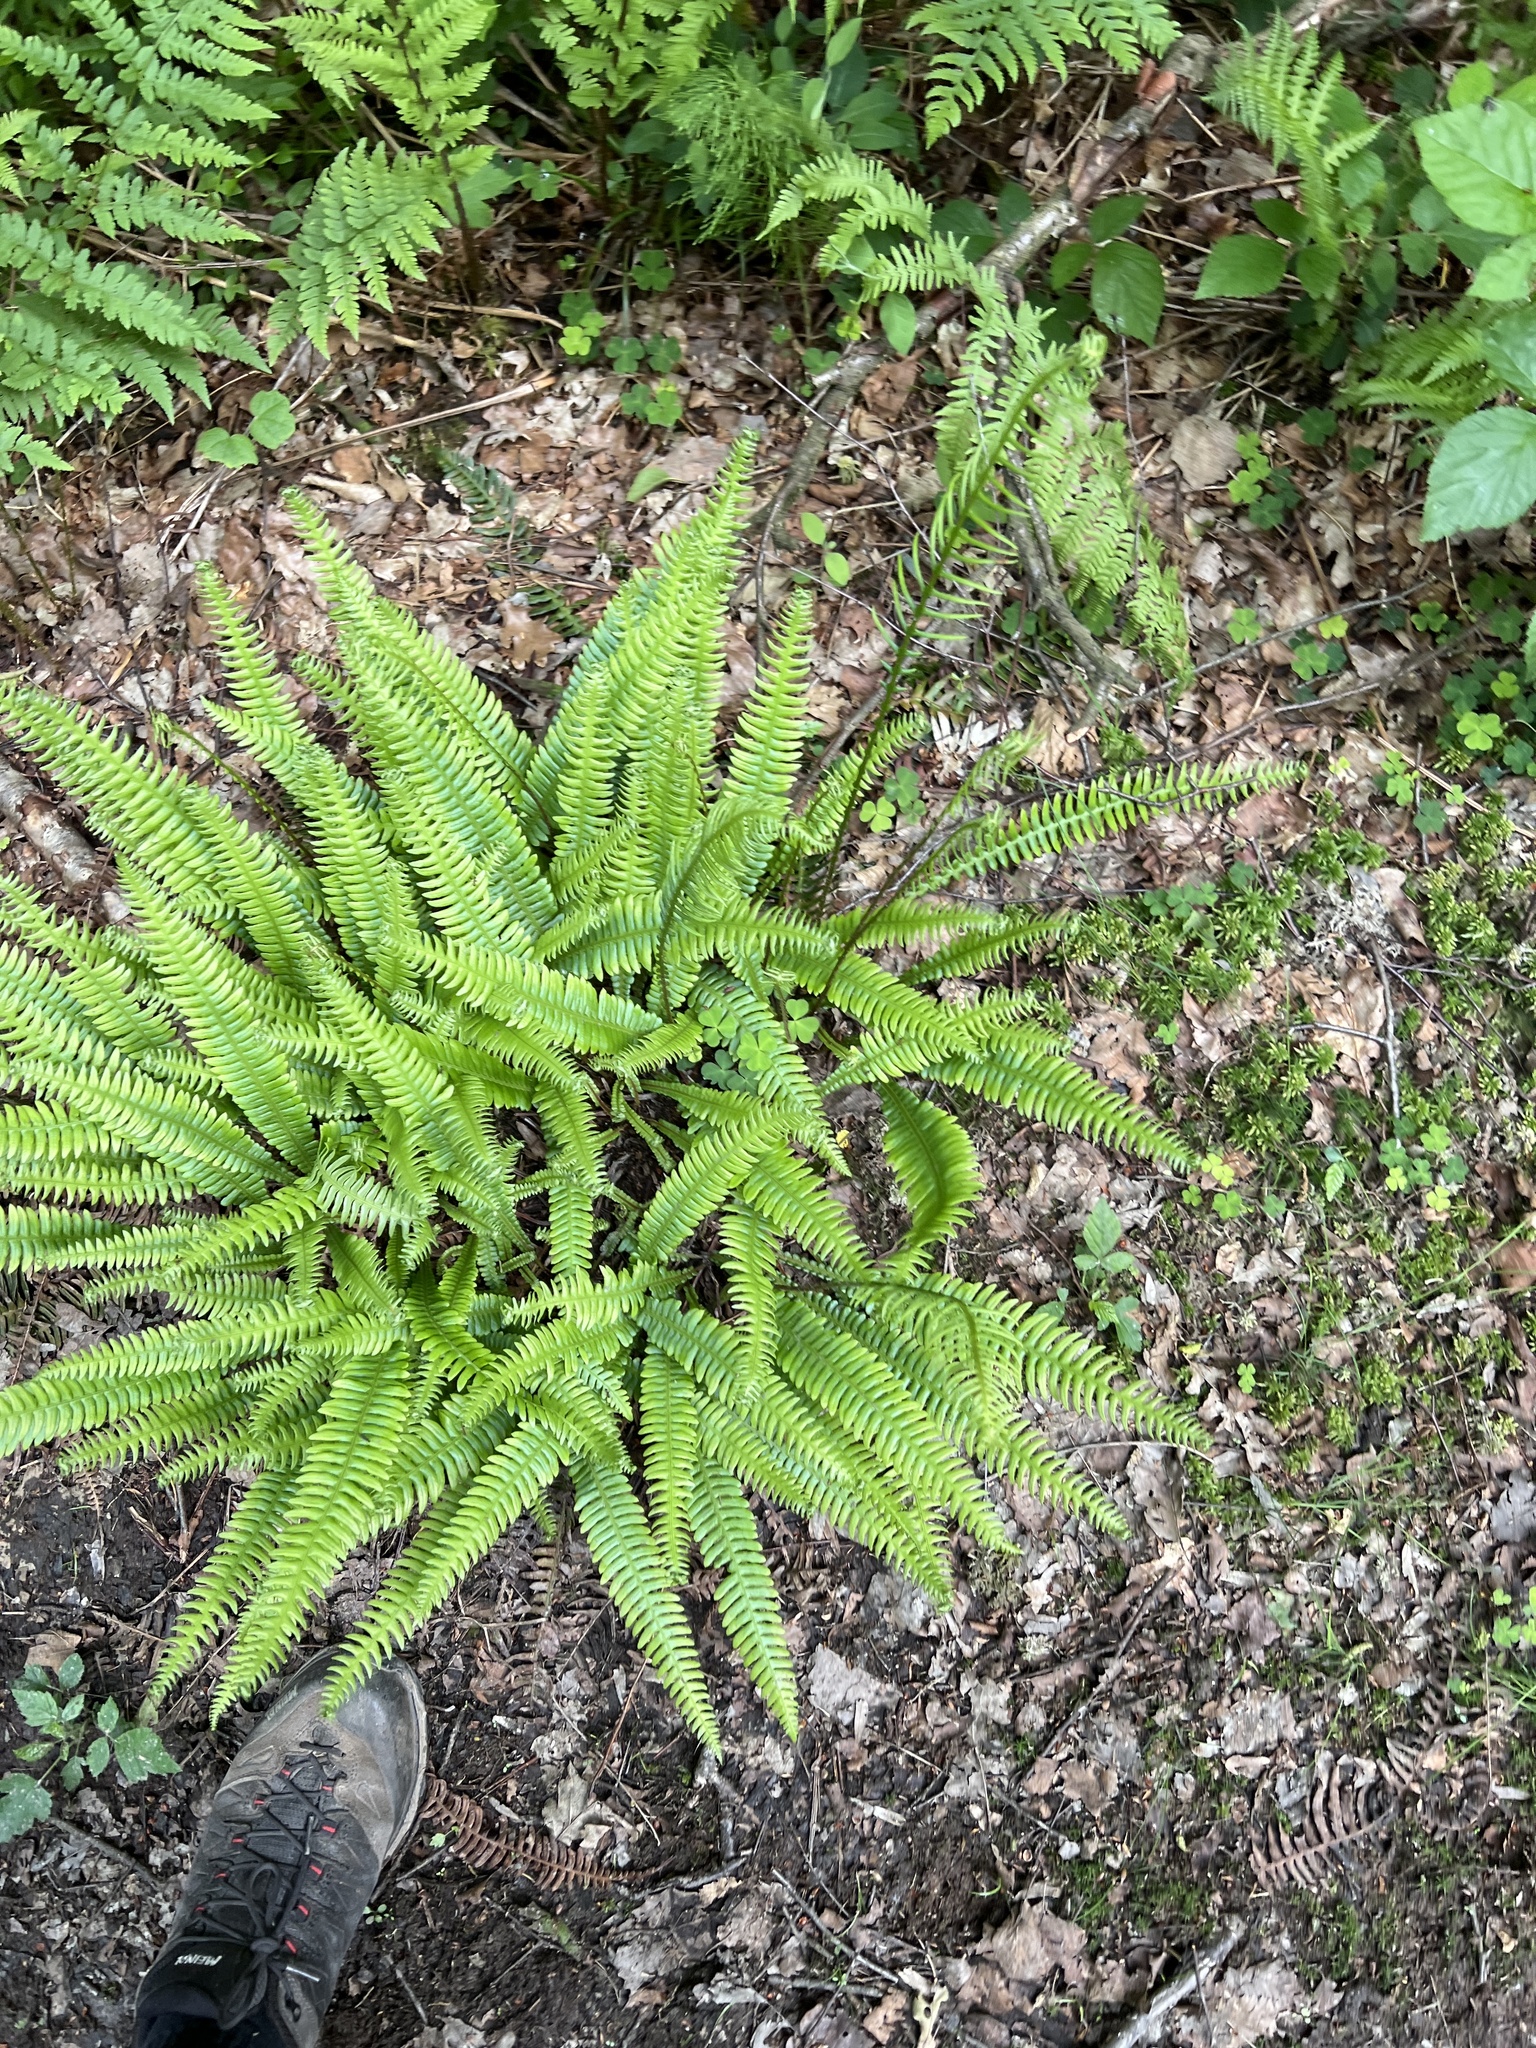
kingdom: Plantae
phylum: Tracheophyta
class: Polypodiopsida
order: Polypodiales
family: Blechnaceae
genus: Struthiopteris
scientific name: Struthiopteris spicant
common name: Deer fern
